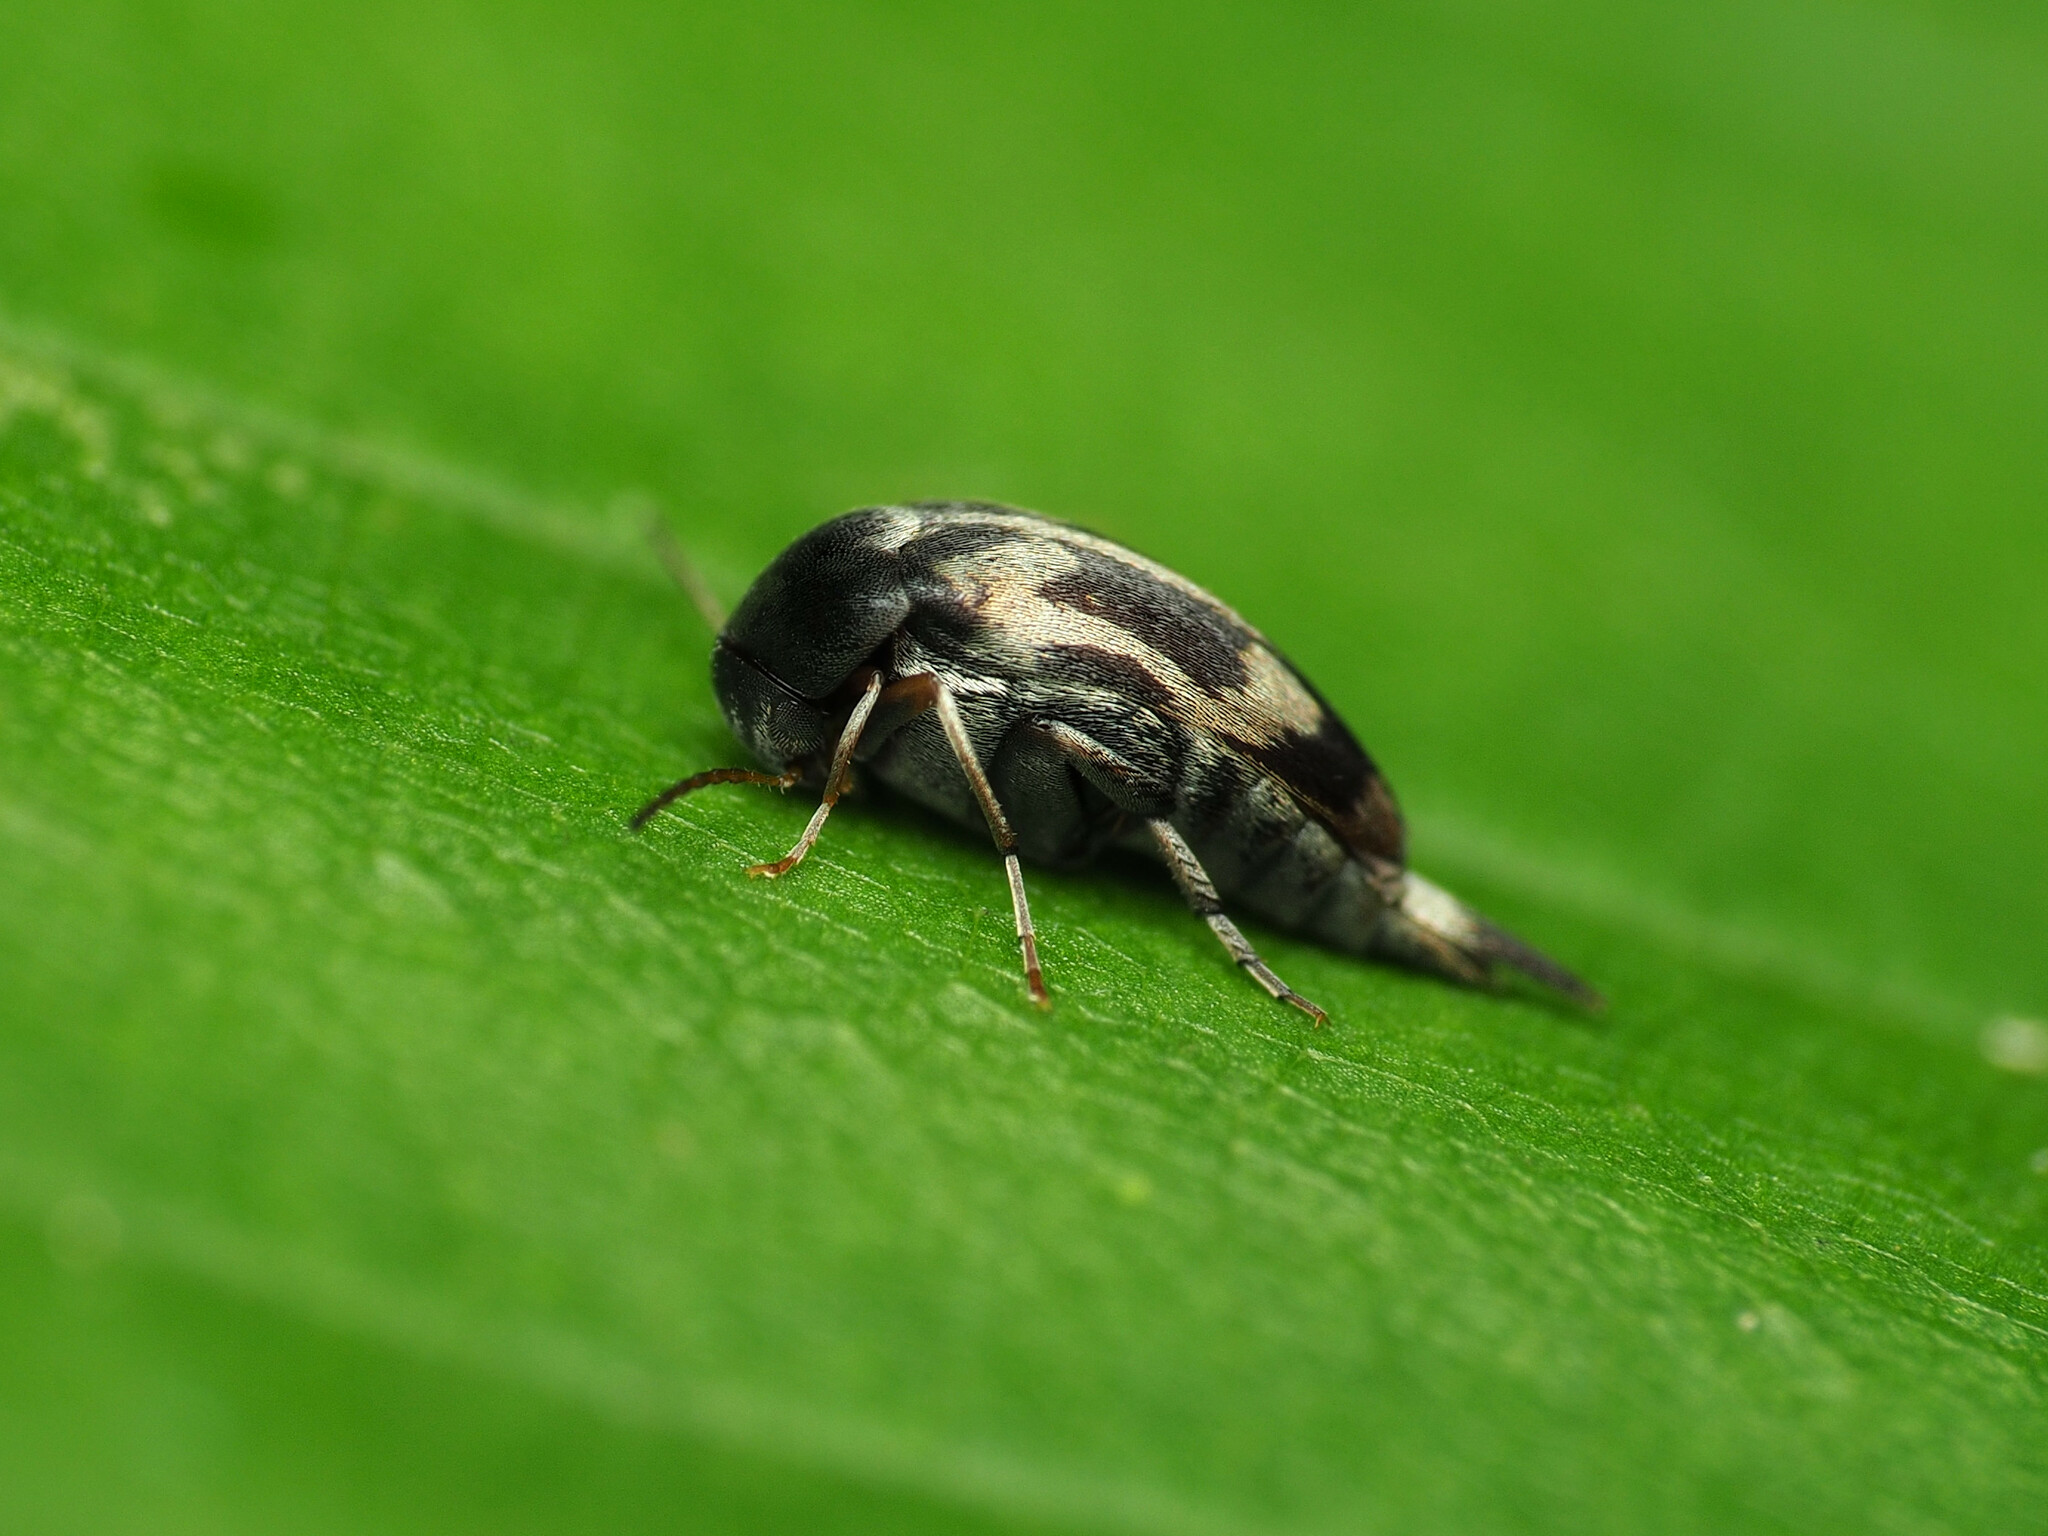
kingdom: Animalia
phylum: Arthropoda
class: Insecta
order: Coleoptera
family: Mordellidae
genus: Falsomordellistena
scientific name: Falsomordellistena hebraica
